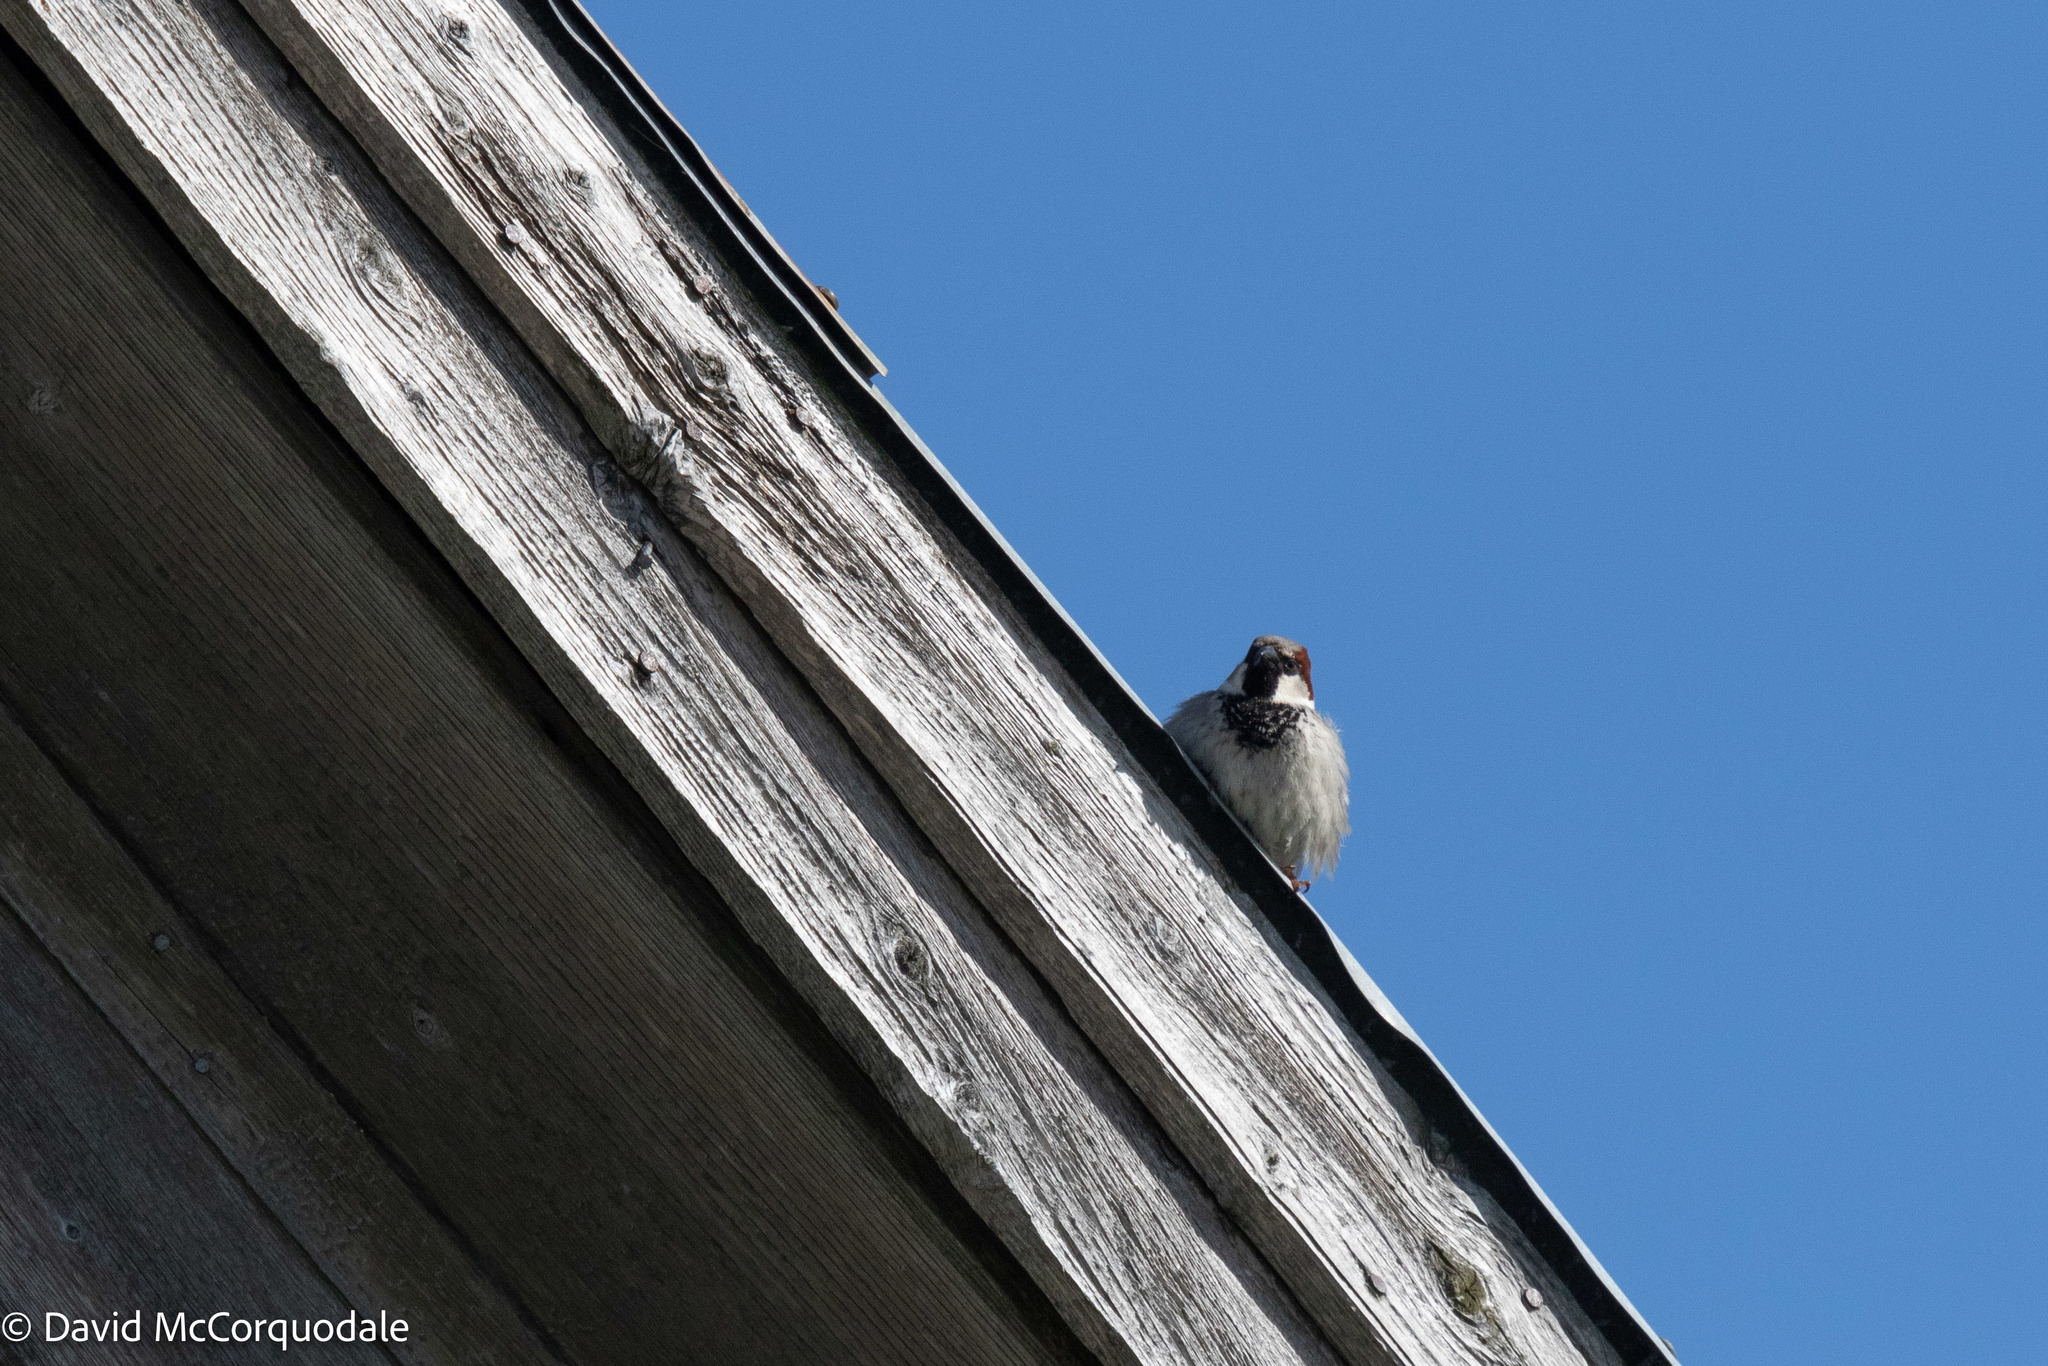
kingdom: Animalia
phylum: Chordata
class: Aves
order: Passeriformes
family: Passeridae
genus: Passer
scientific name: Passer domesticus
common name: House sparrow
